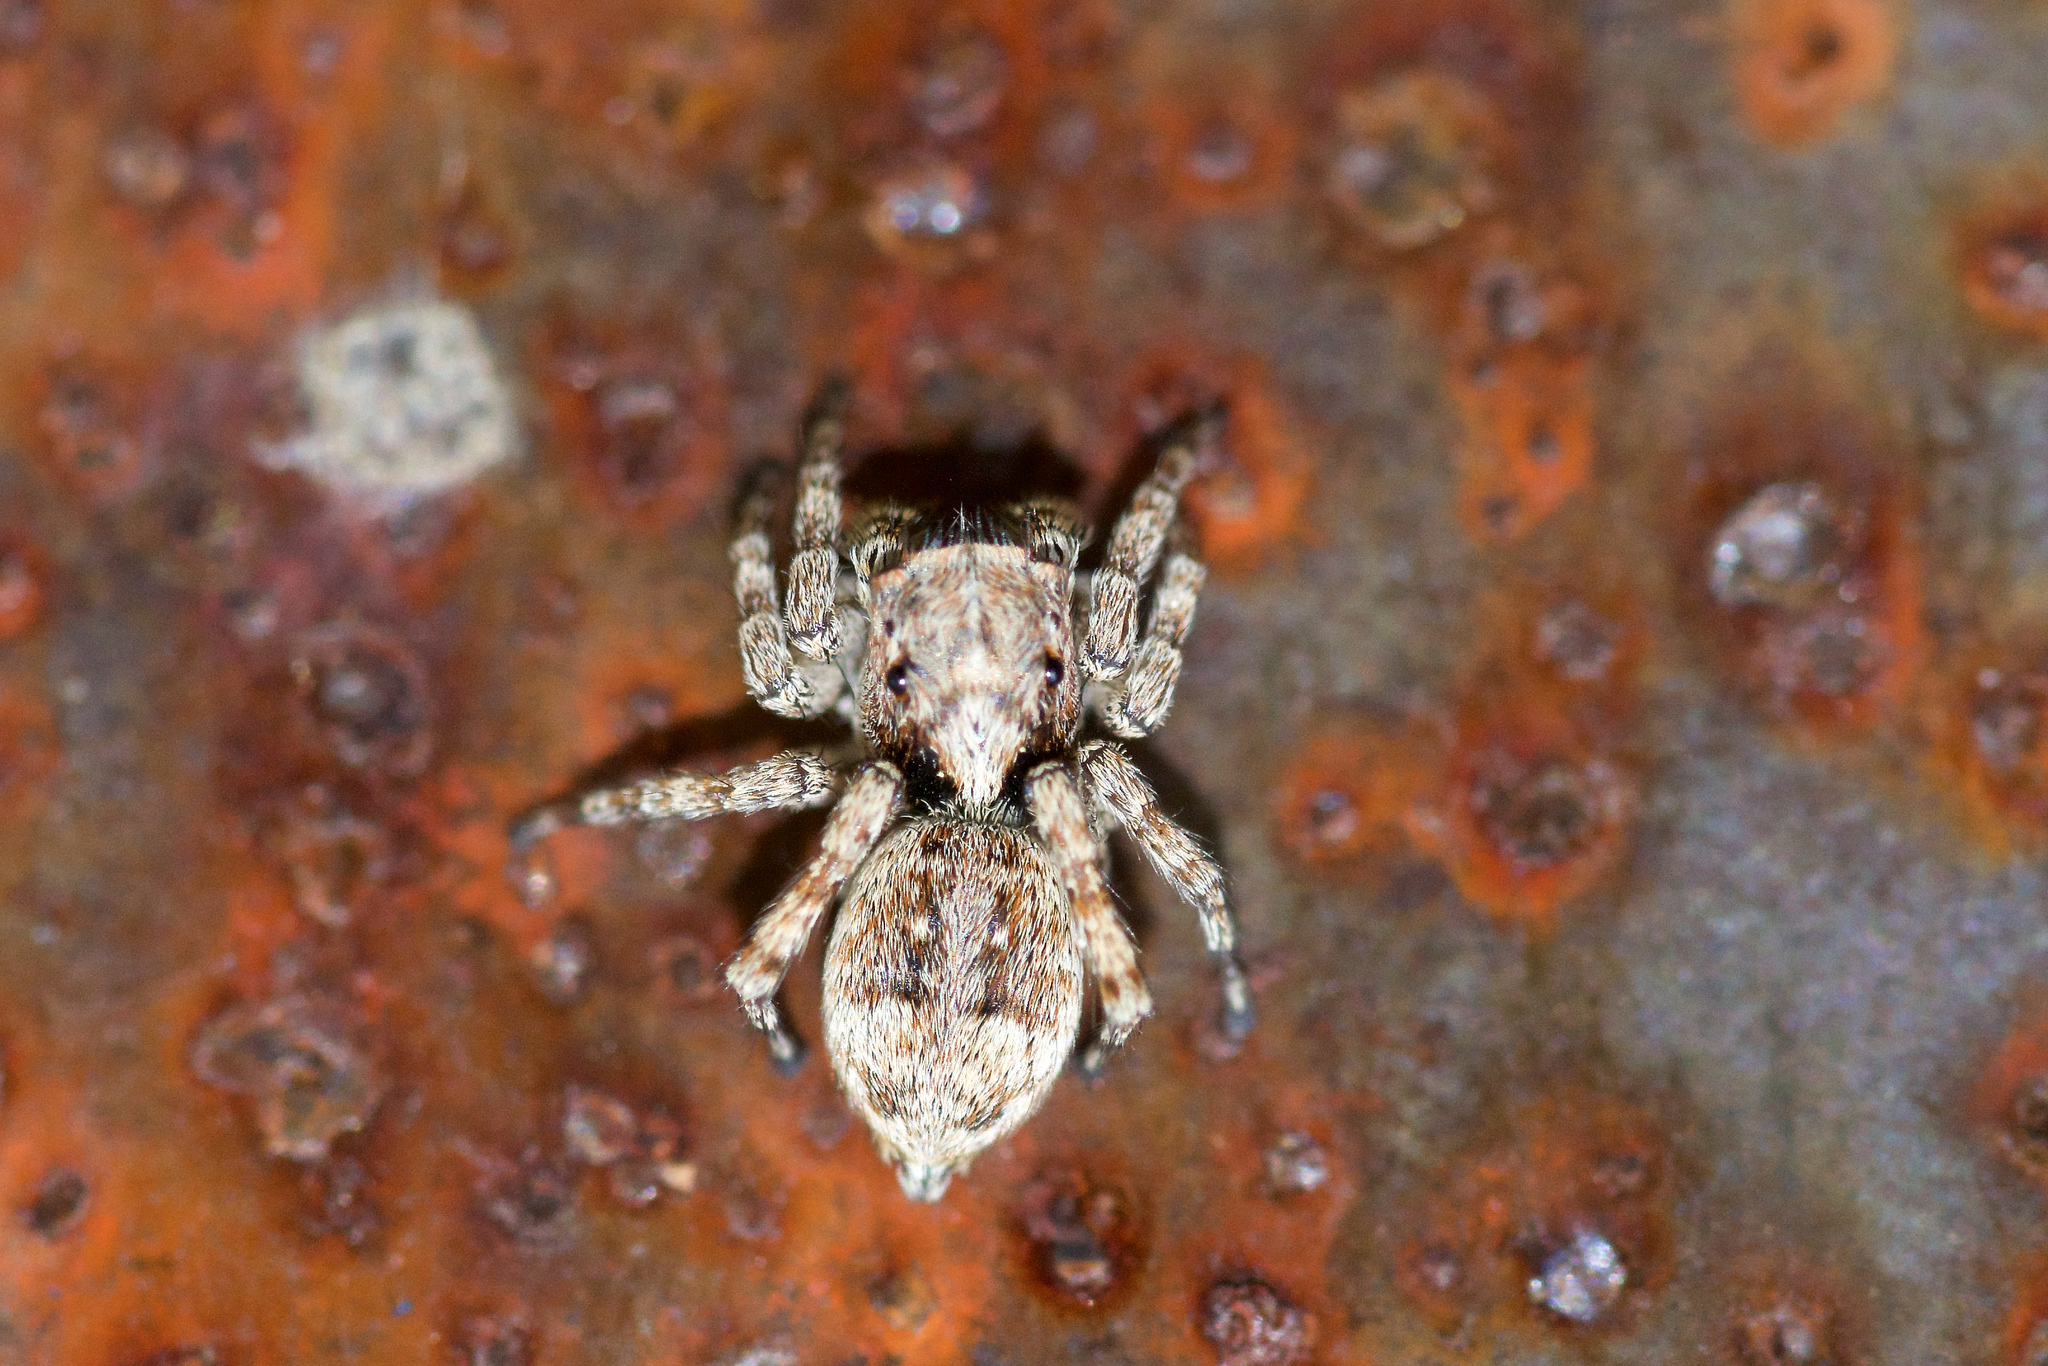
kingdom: Animalia
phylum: Arthropoda
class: Arachnida
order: Araneae
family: Salticidae
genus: Attulus
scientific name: Attulus fasciger
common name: Asiatic wall jumping spider
